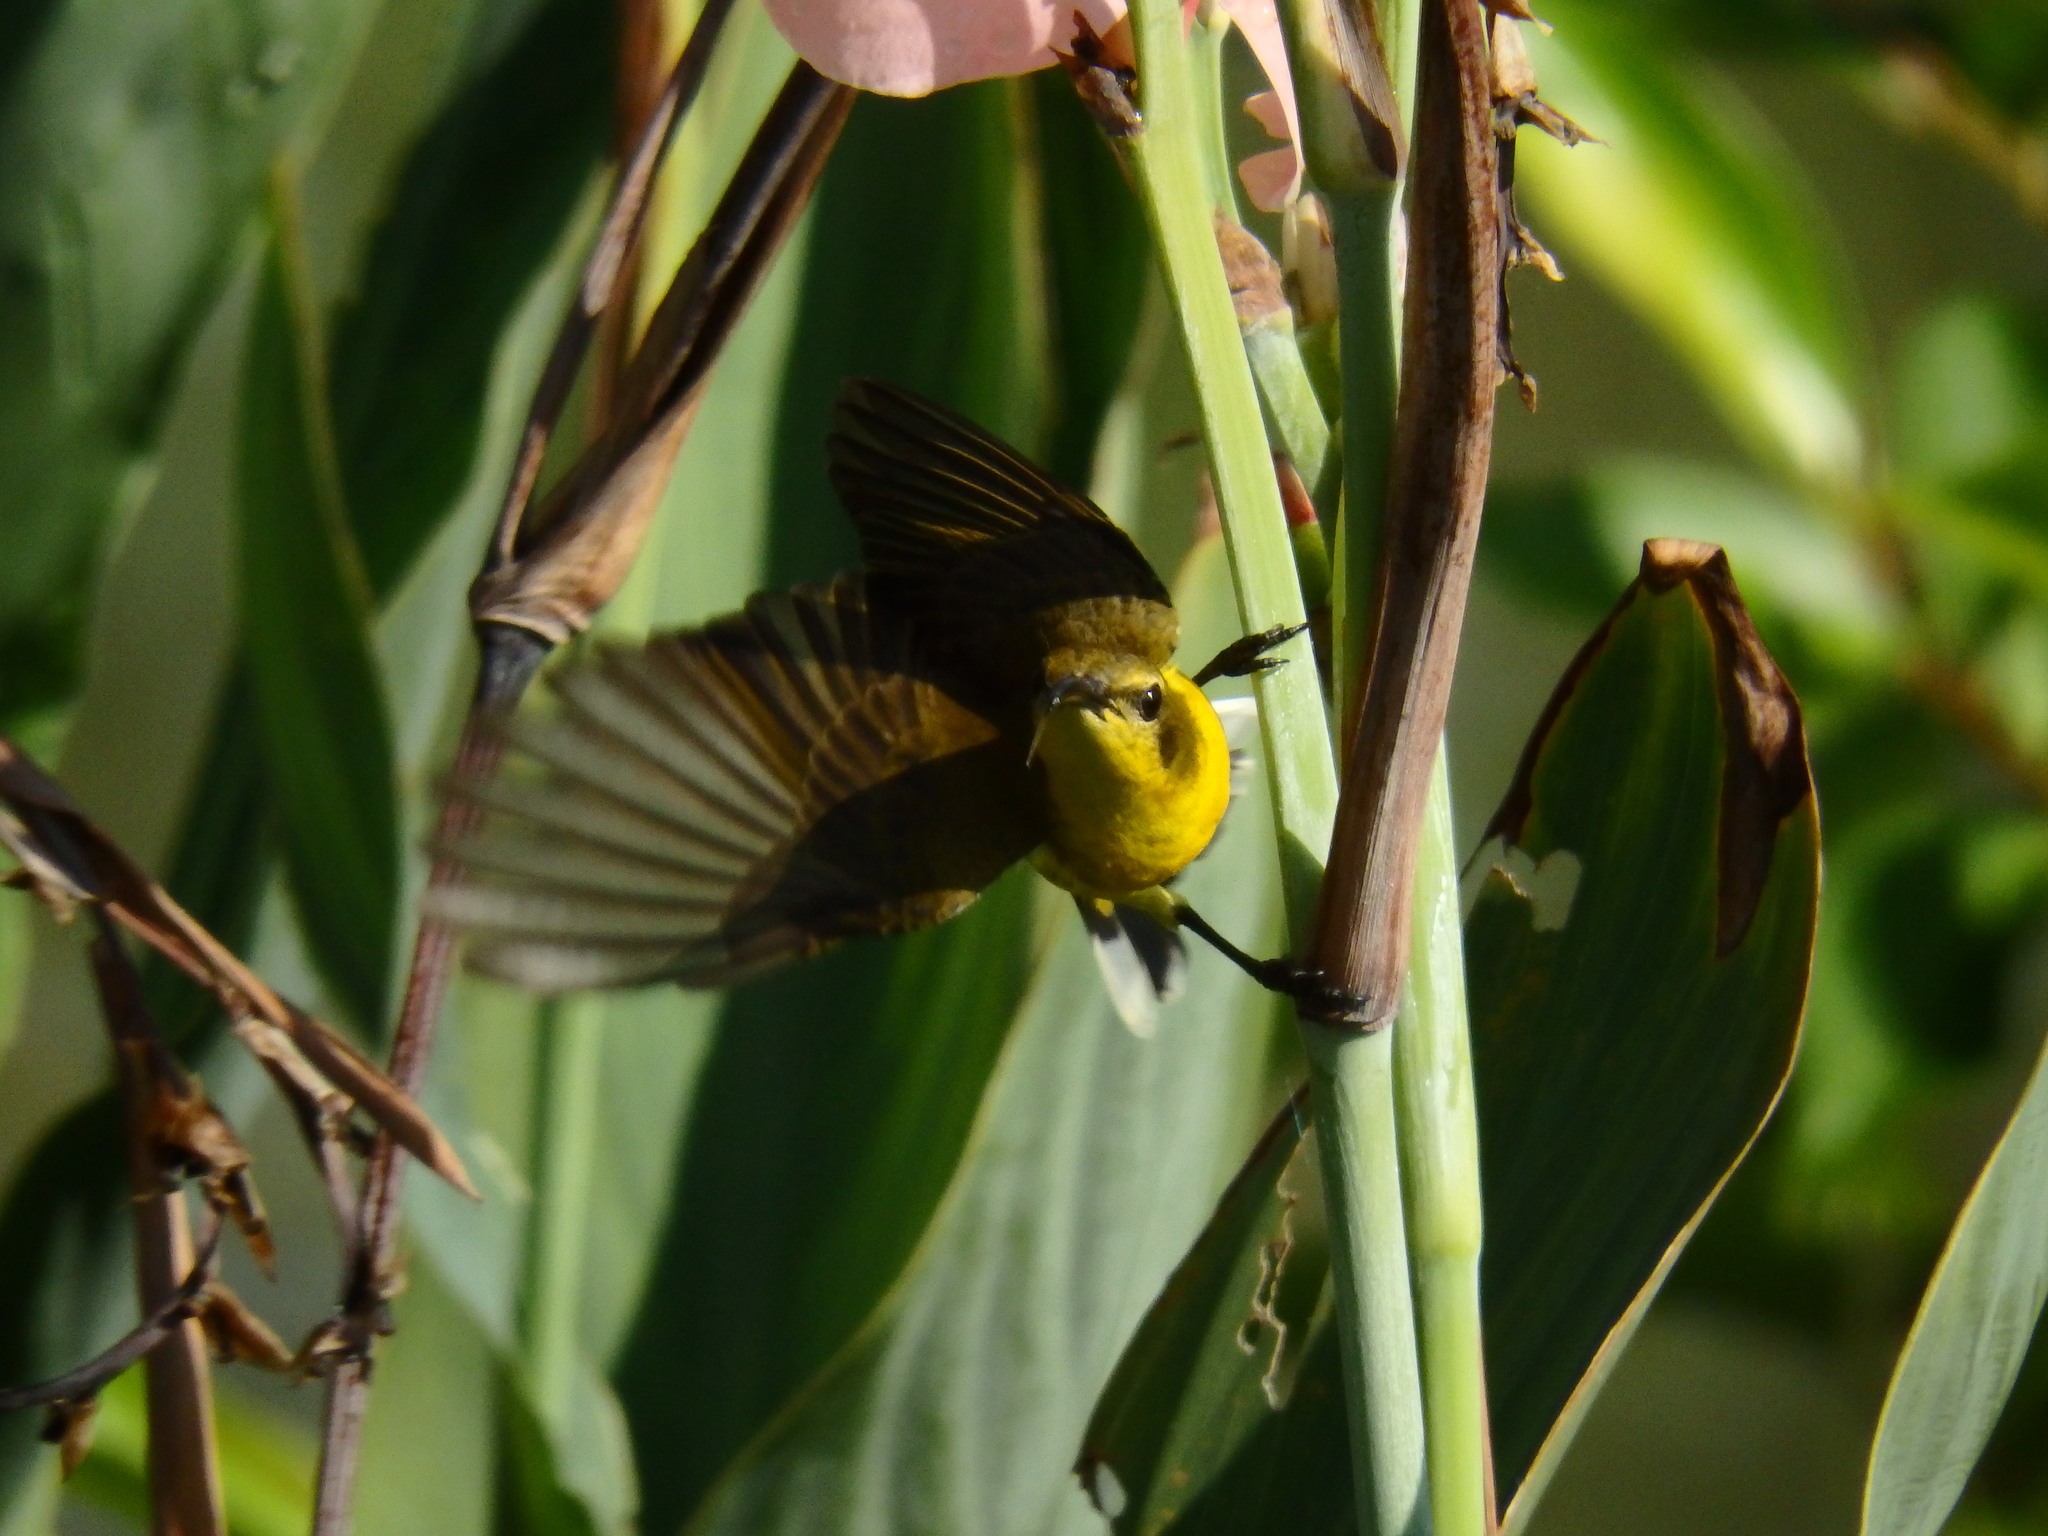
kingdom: Animalia
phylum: Chordata
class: Aves
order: Passeriformes
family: Nectariniidae
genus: Cinnyris
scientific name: Cinnyris
